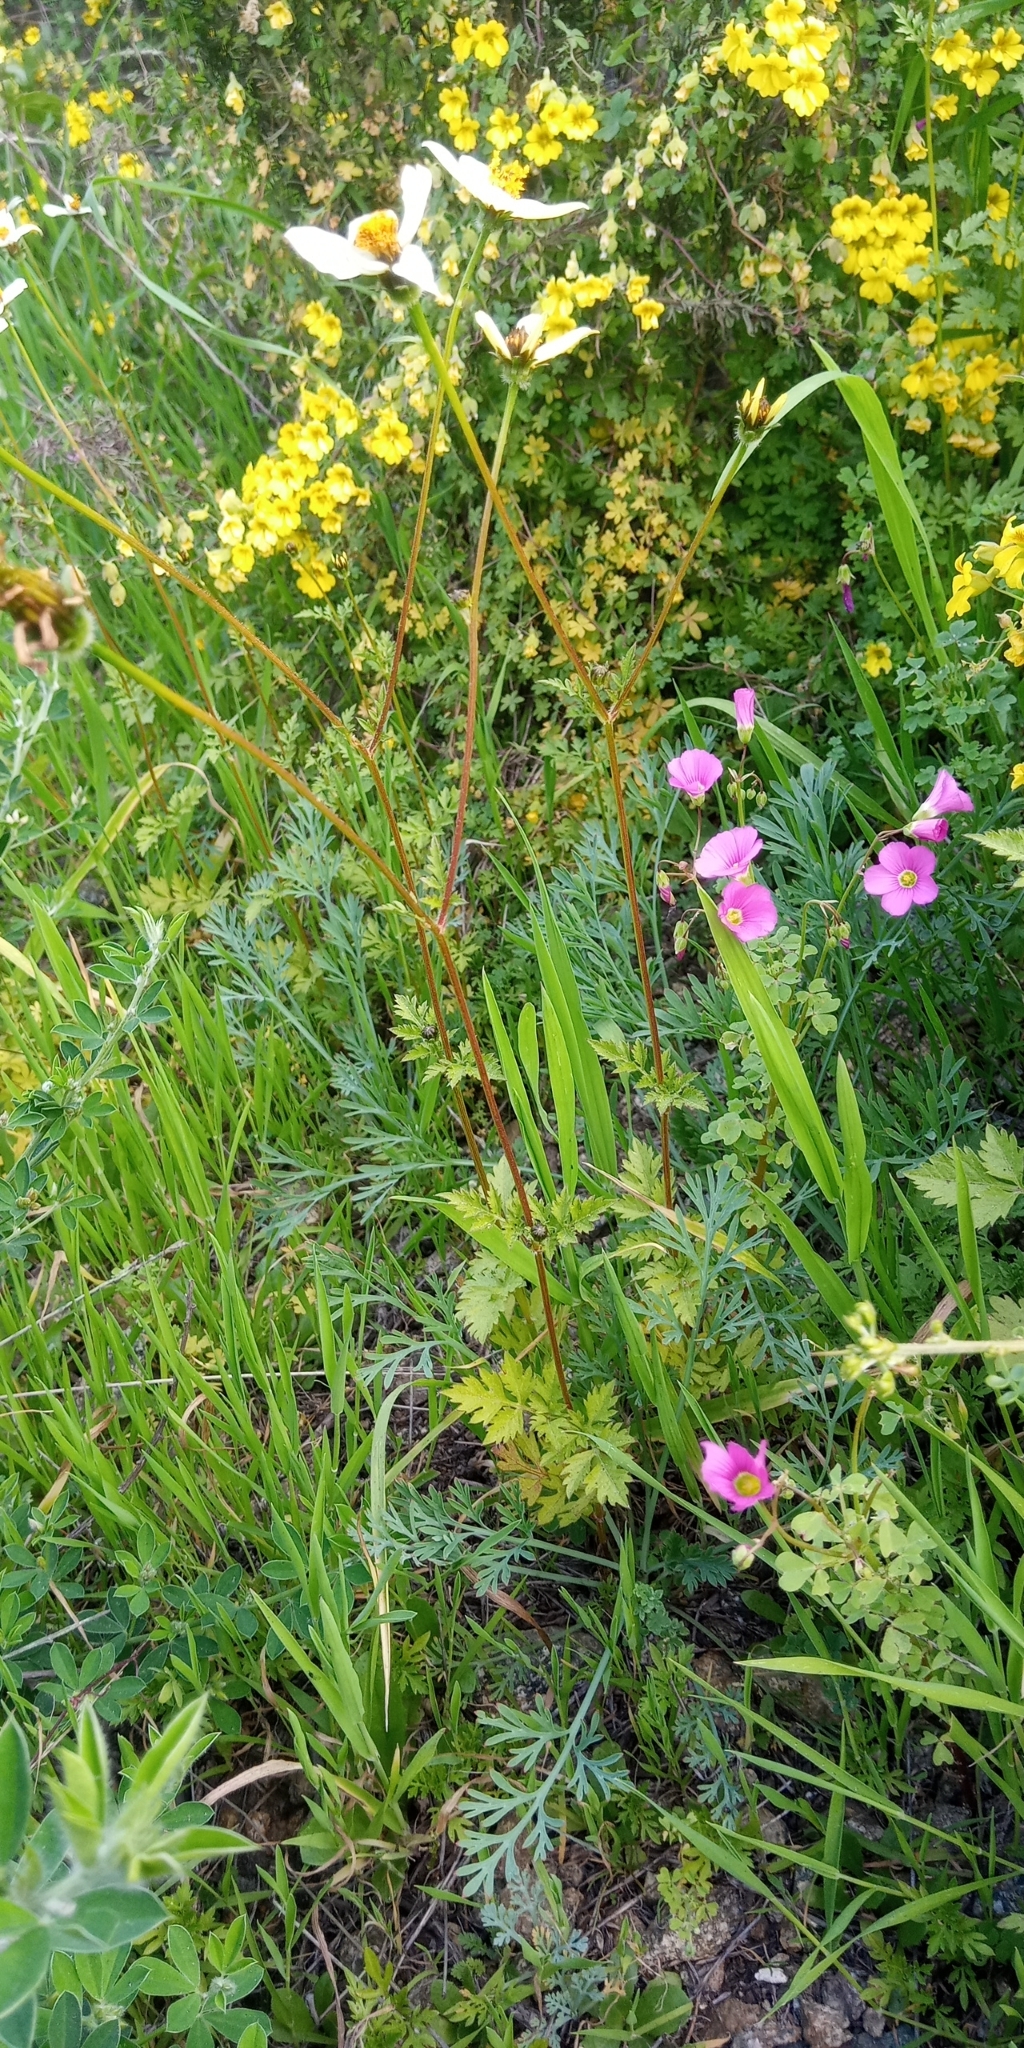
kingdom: Plantae
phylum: Tracheophyta
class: Magnoliopsida
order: Asterales
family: Asteraceae
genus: Bidens
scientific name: Bidens pilosa
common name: Black-jack
